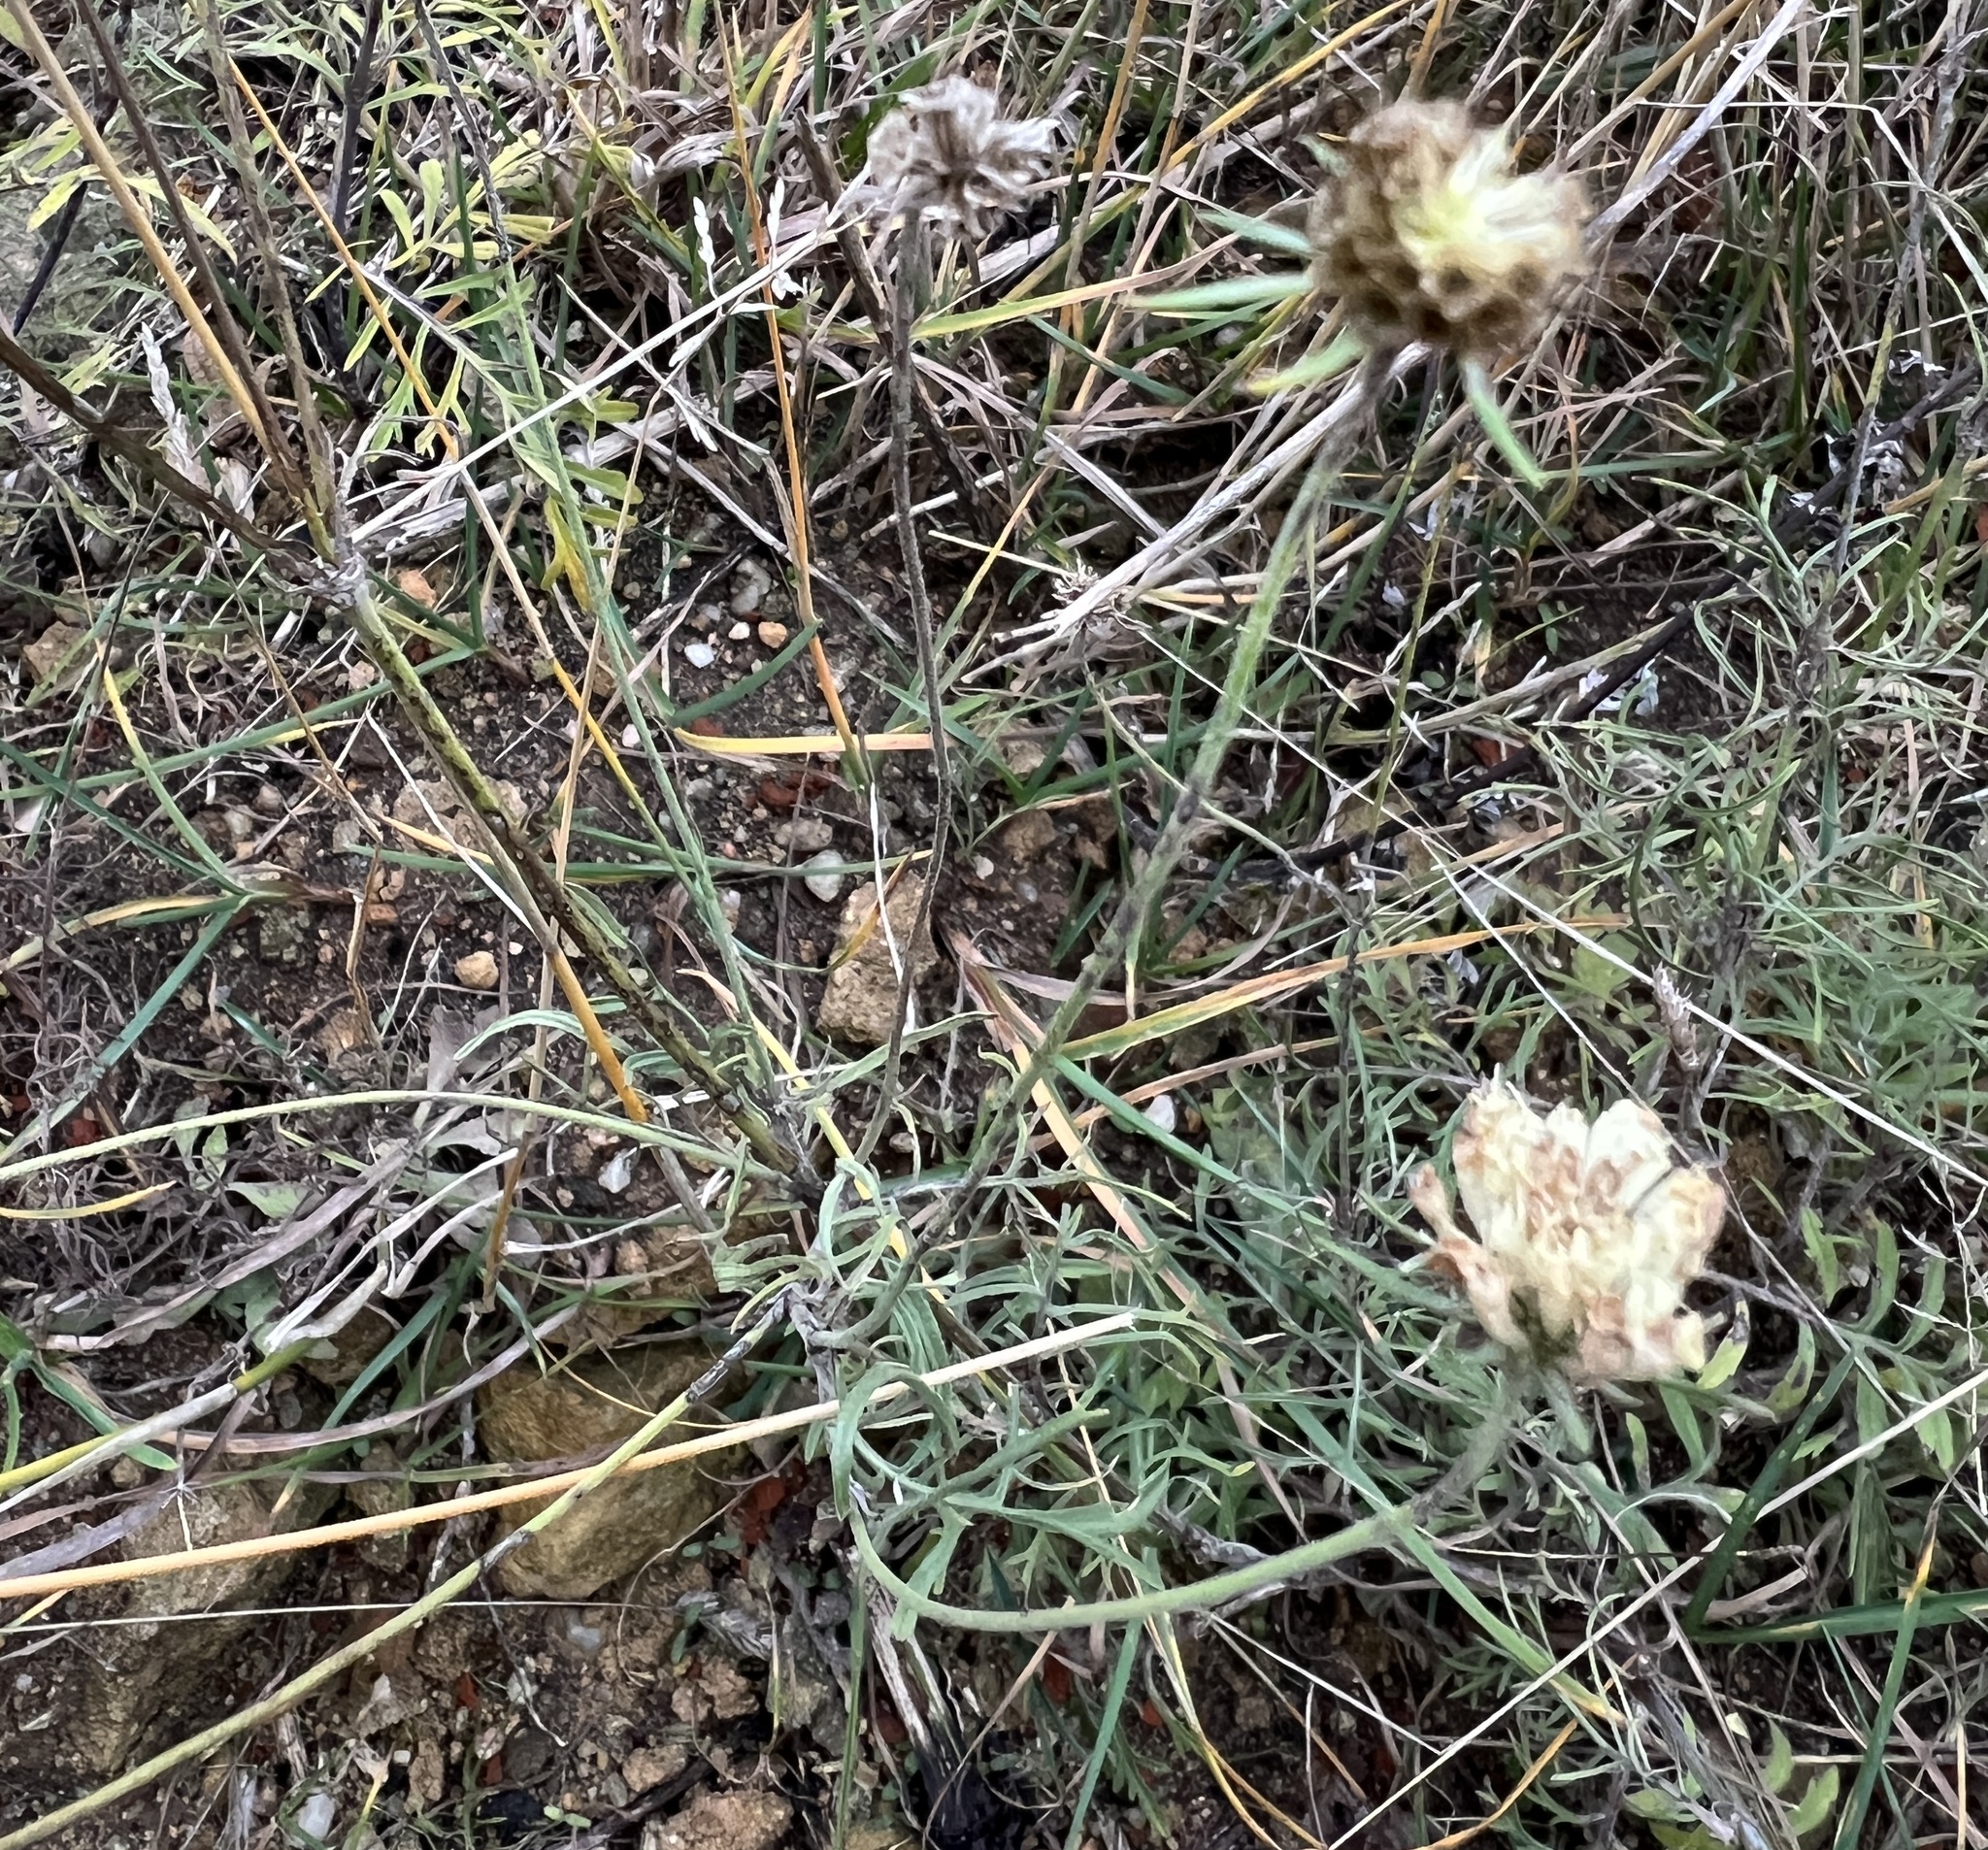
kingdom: Plantae
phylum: Tracheophyta
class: Magnoliopsida
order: Dipsacales
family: Caprifoliaceae
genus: Scabiosa
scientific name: Scabiosa ochroleuca
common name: Cream pincushions
